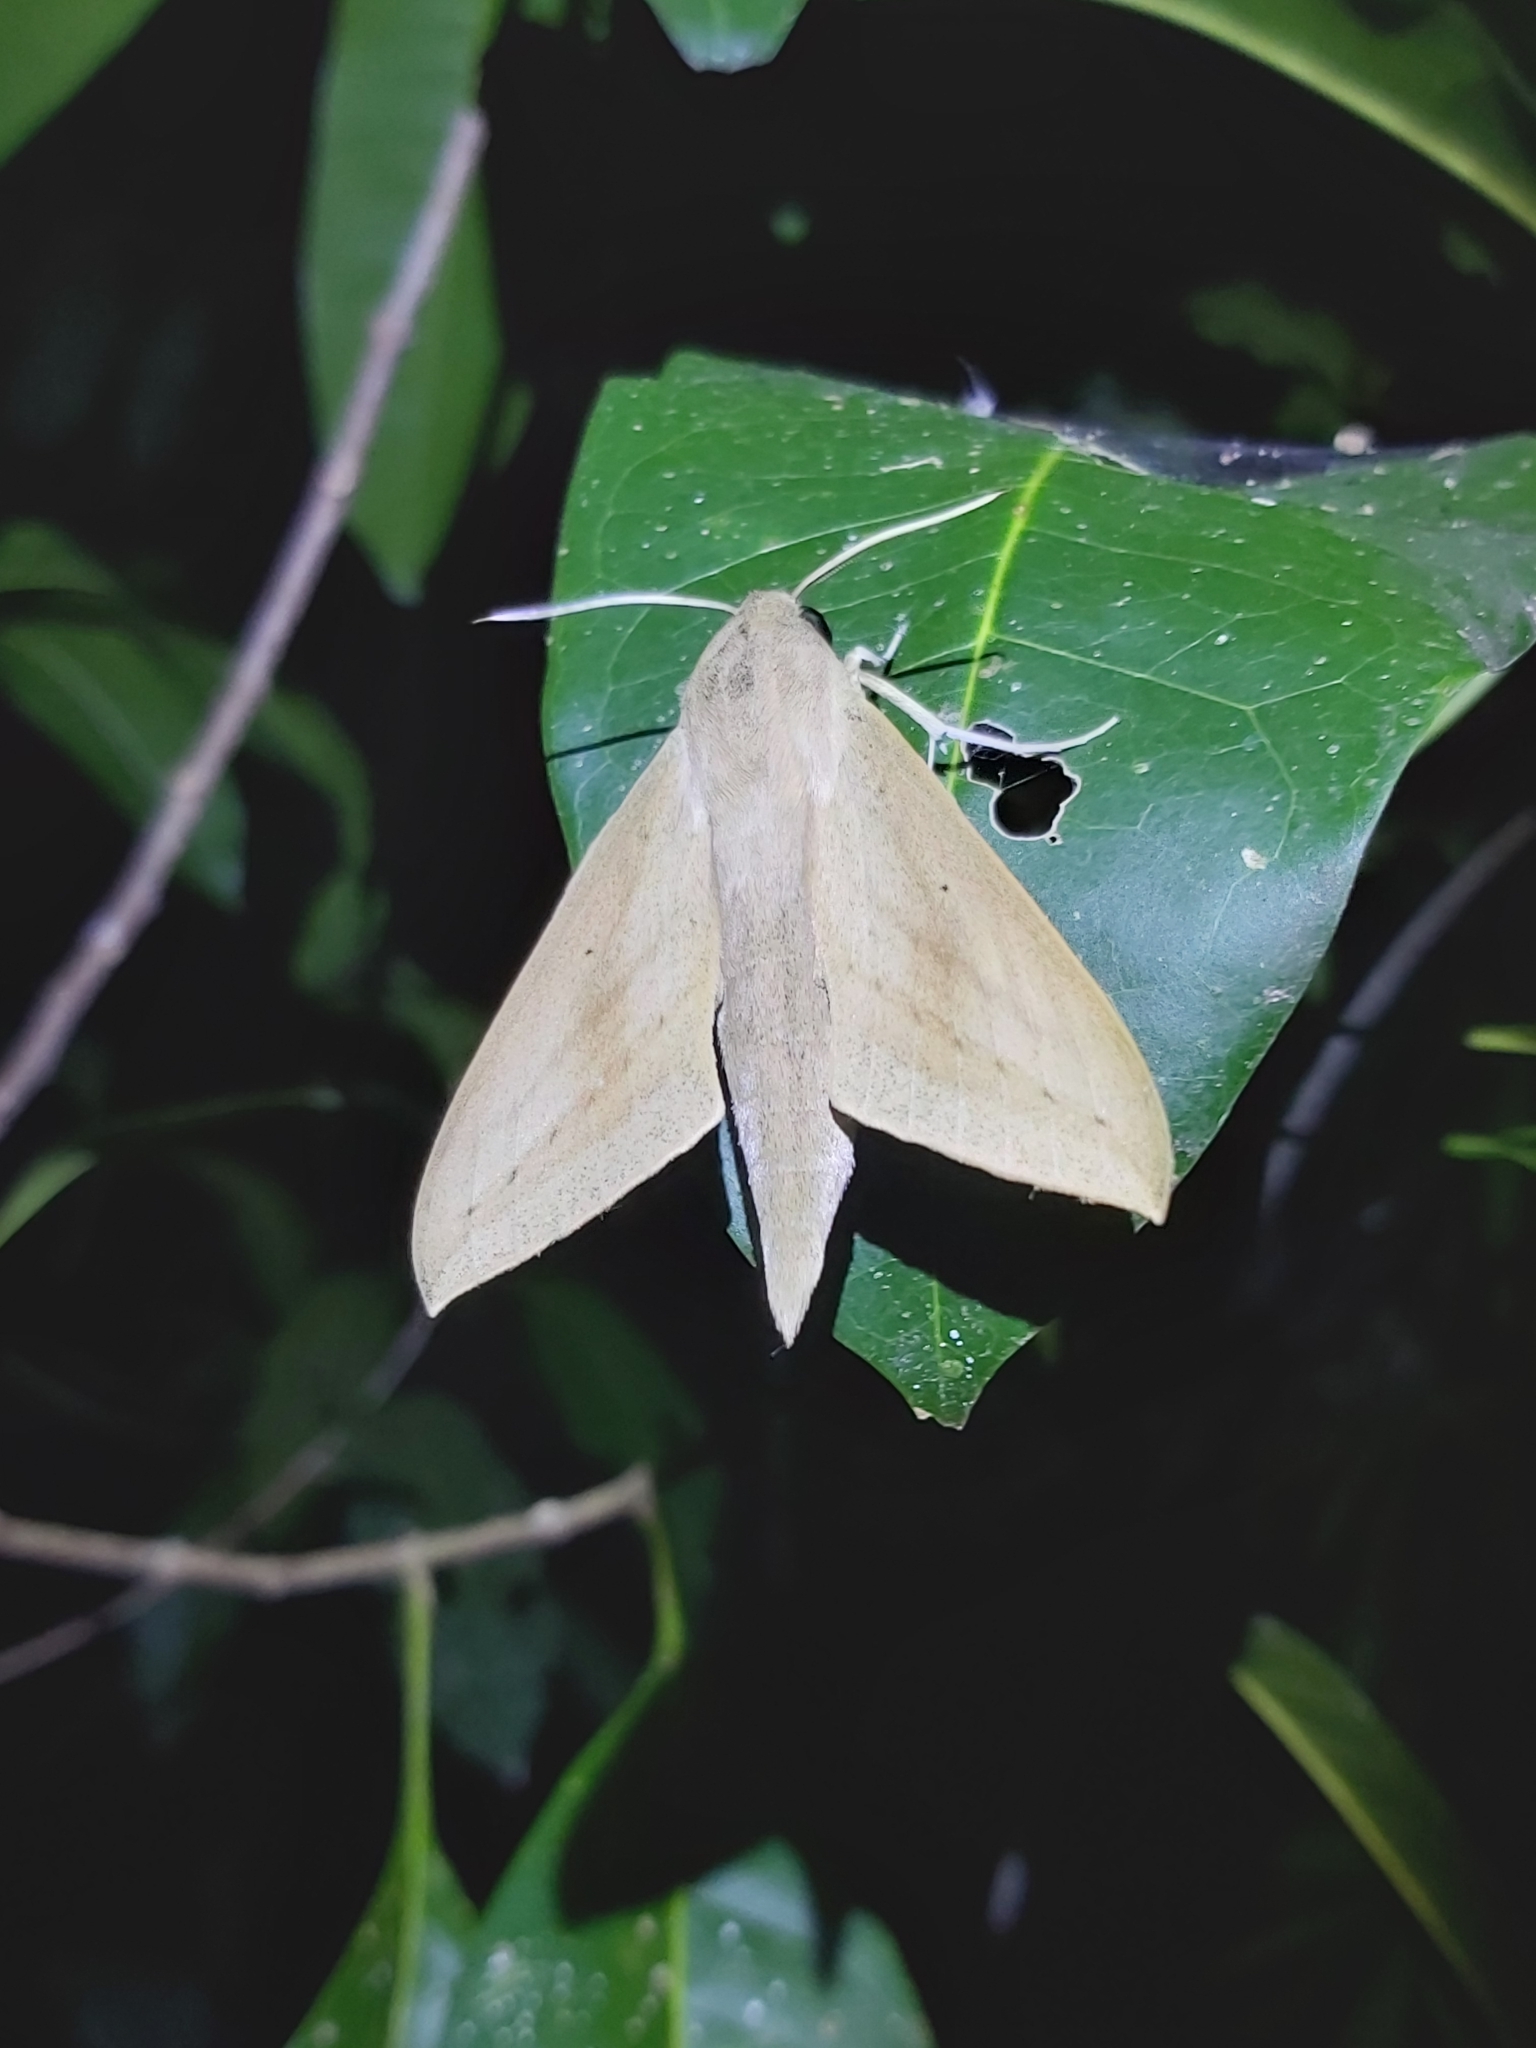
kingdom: Animalia
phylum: Arthropoda
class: Insecta
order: Lepidoptera
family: Sphingidae
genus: Theretra
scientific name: Theretra latreillii
